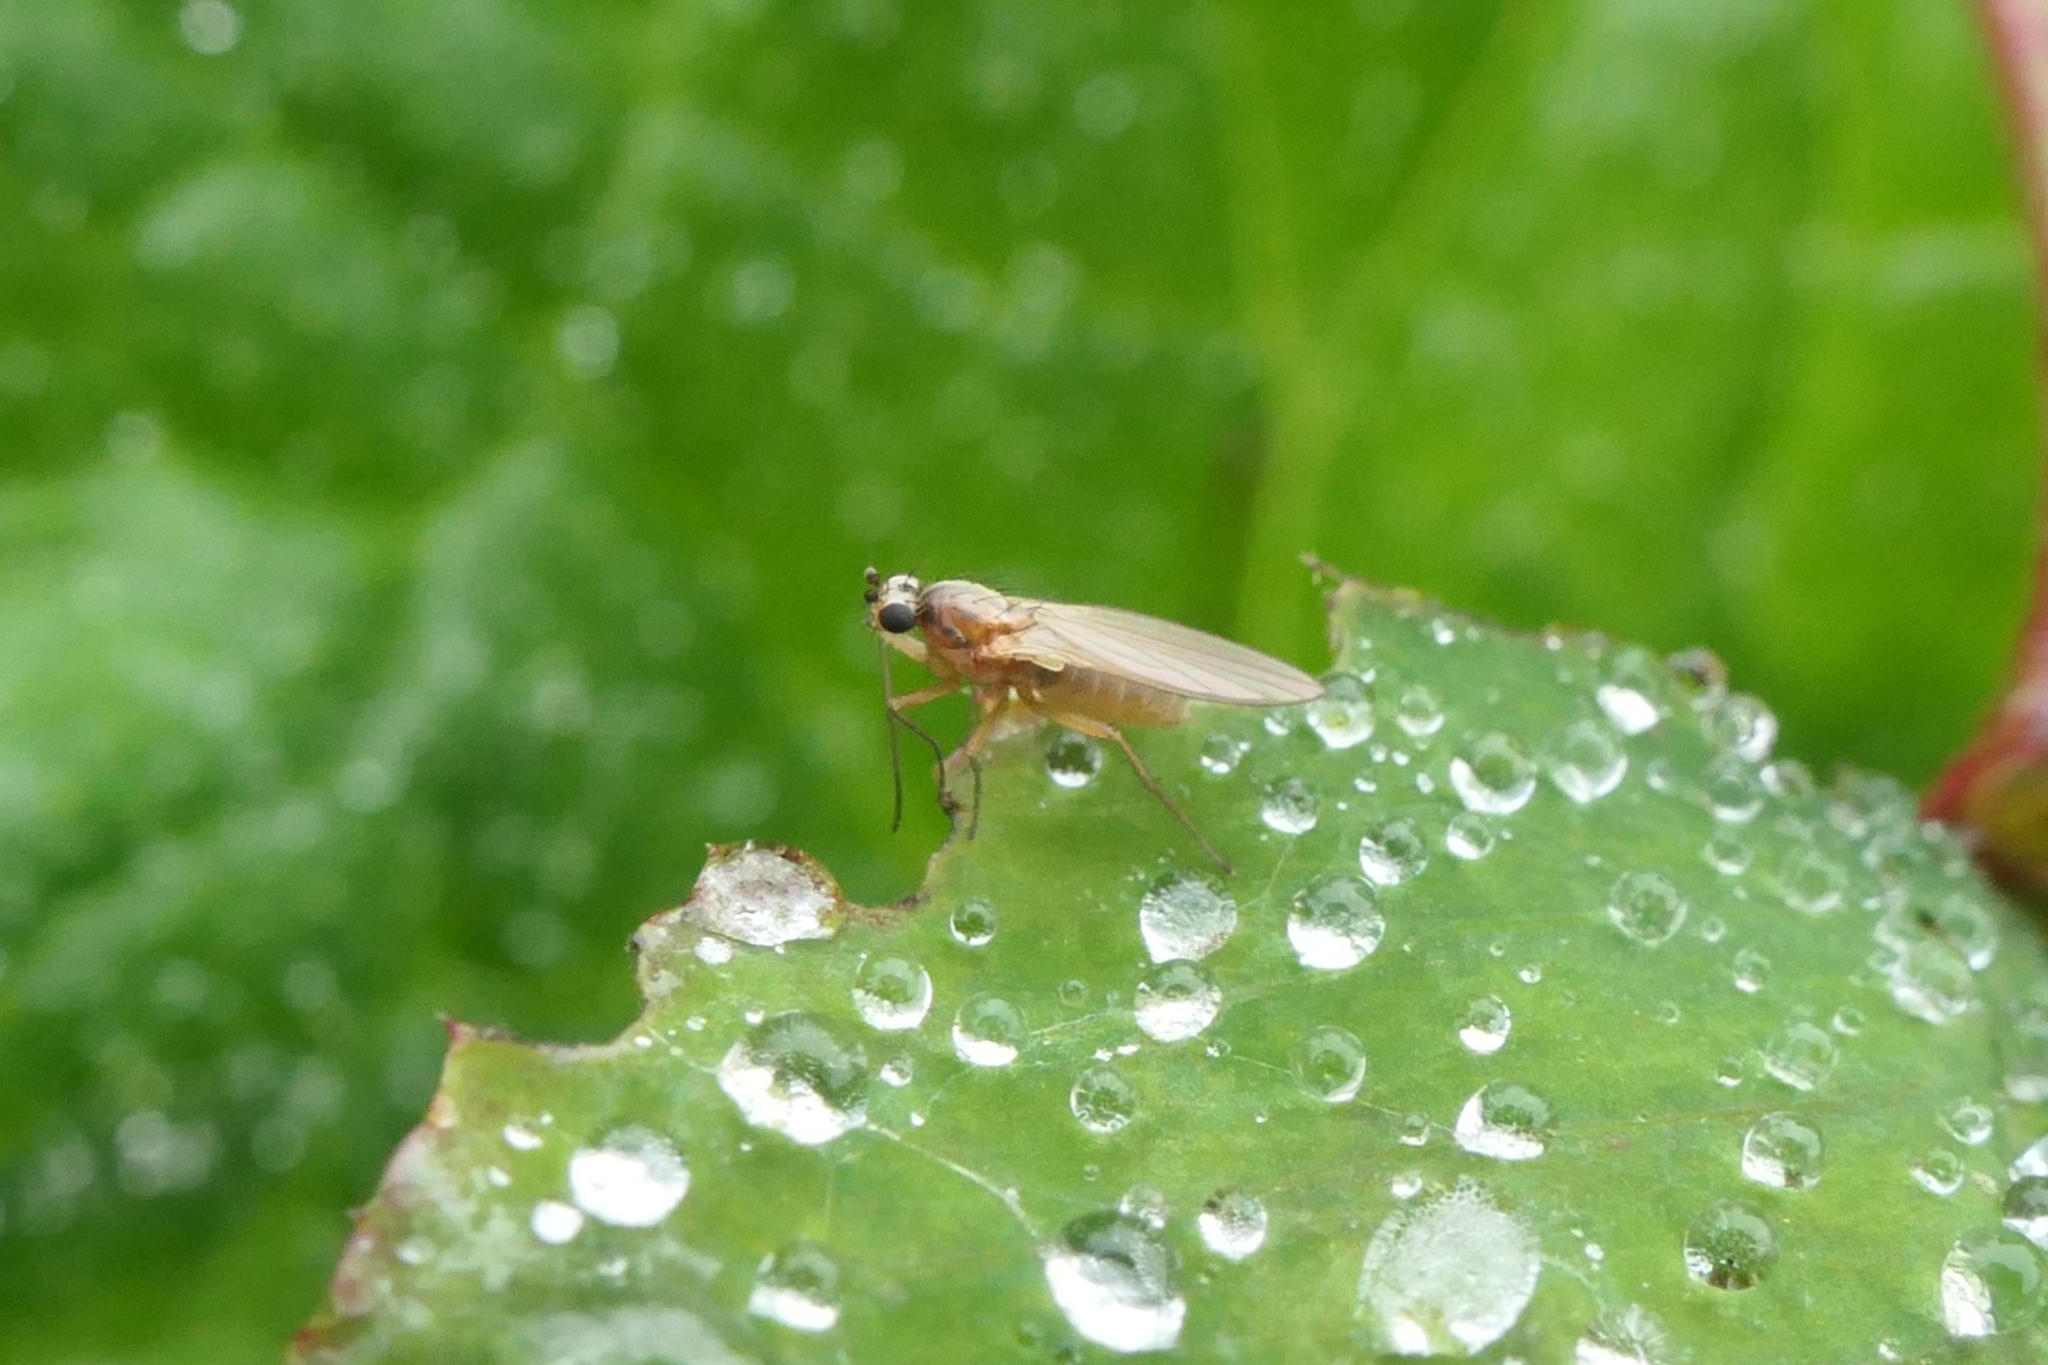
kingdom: Animalia
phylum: Arthropoda
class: Insecta
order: Diptera
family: Lonchopteridae
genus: Lonchoptera
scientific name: Lonchoptera bifurcata
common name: Spear-winged fly
